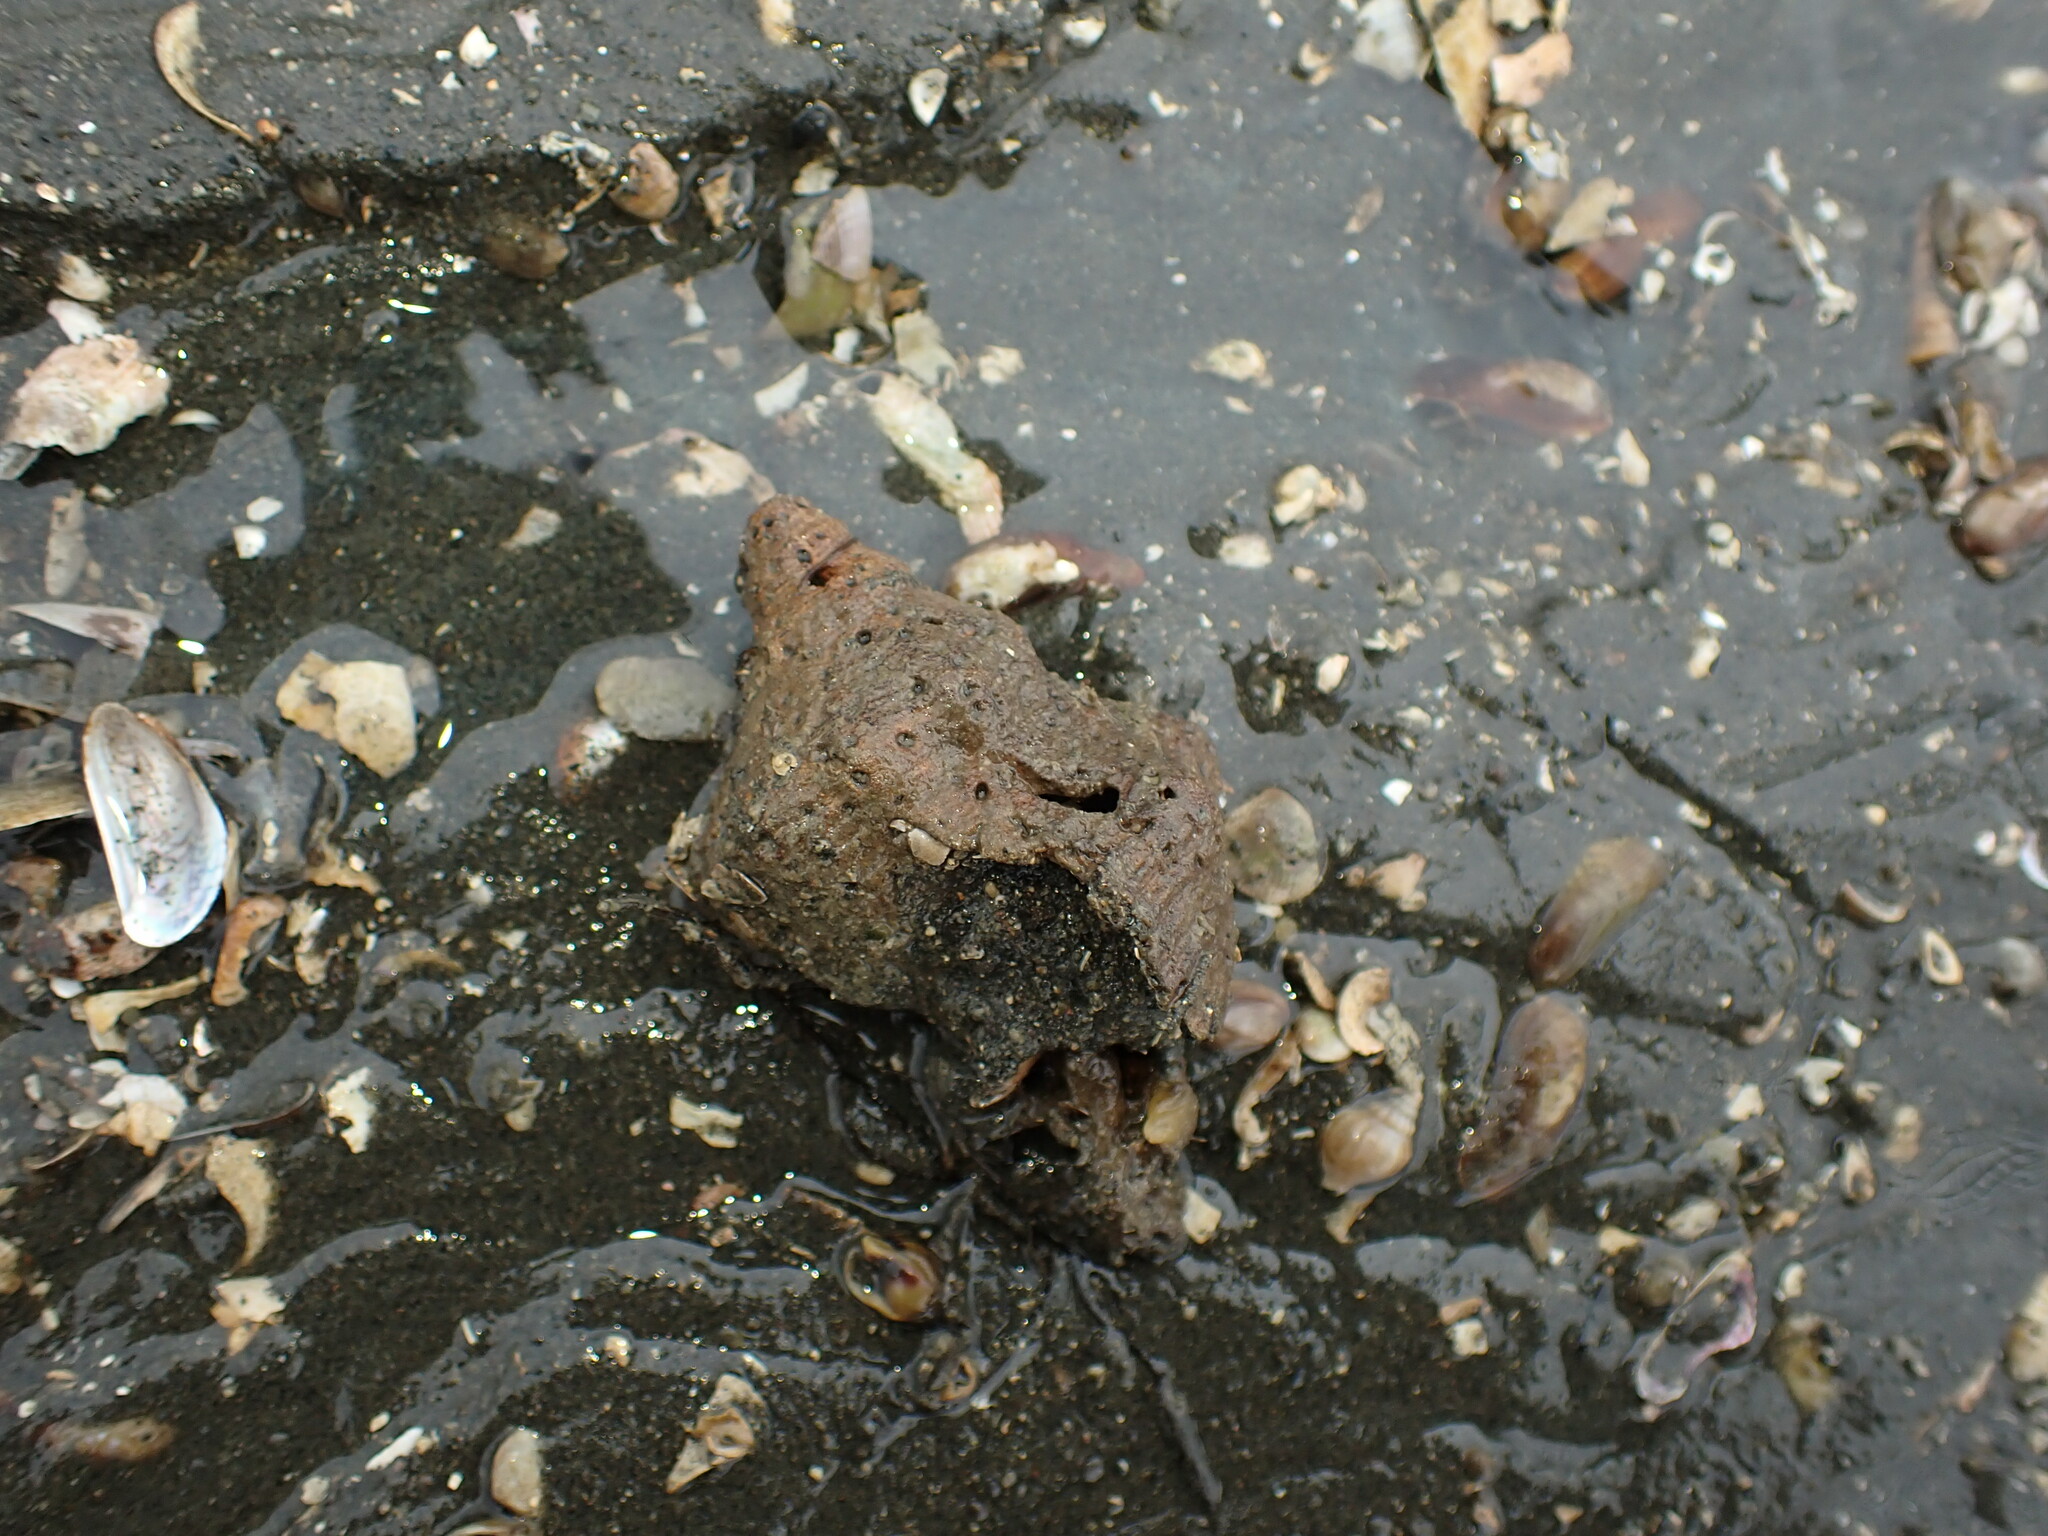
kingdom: Animalia
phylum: Mollusca
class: Gastropoda
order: Neogastropoda
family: Austrosiphonidae
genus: Penion
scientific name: Penion sulcatus
